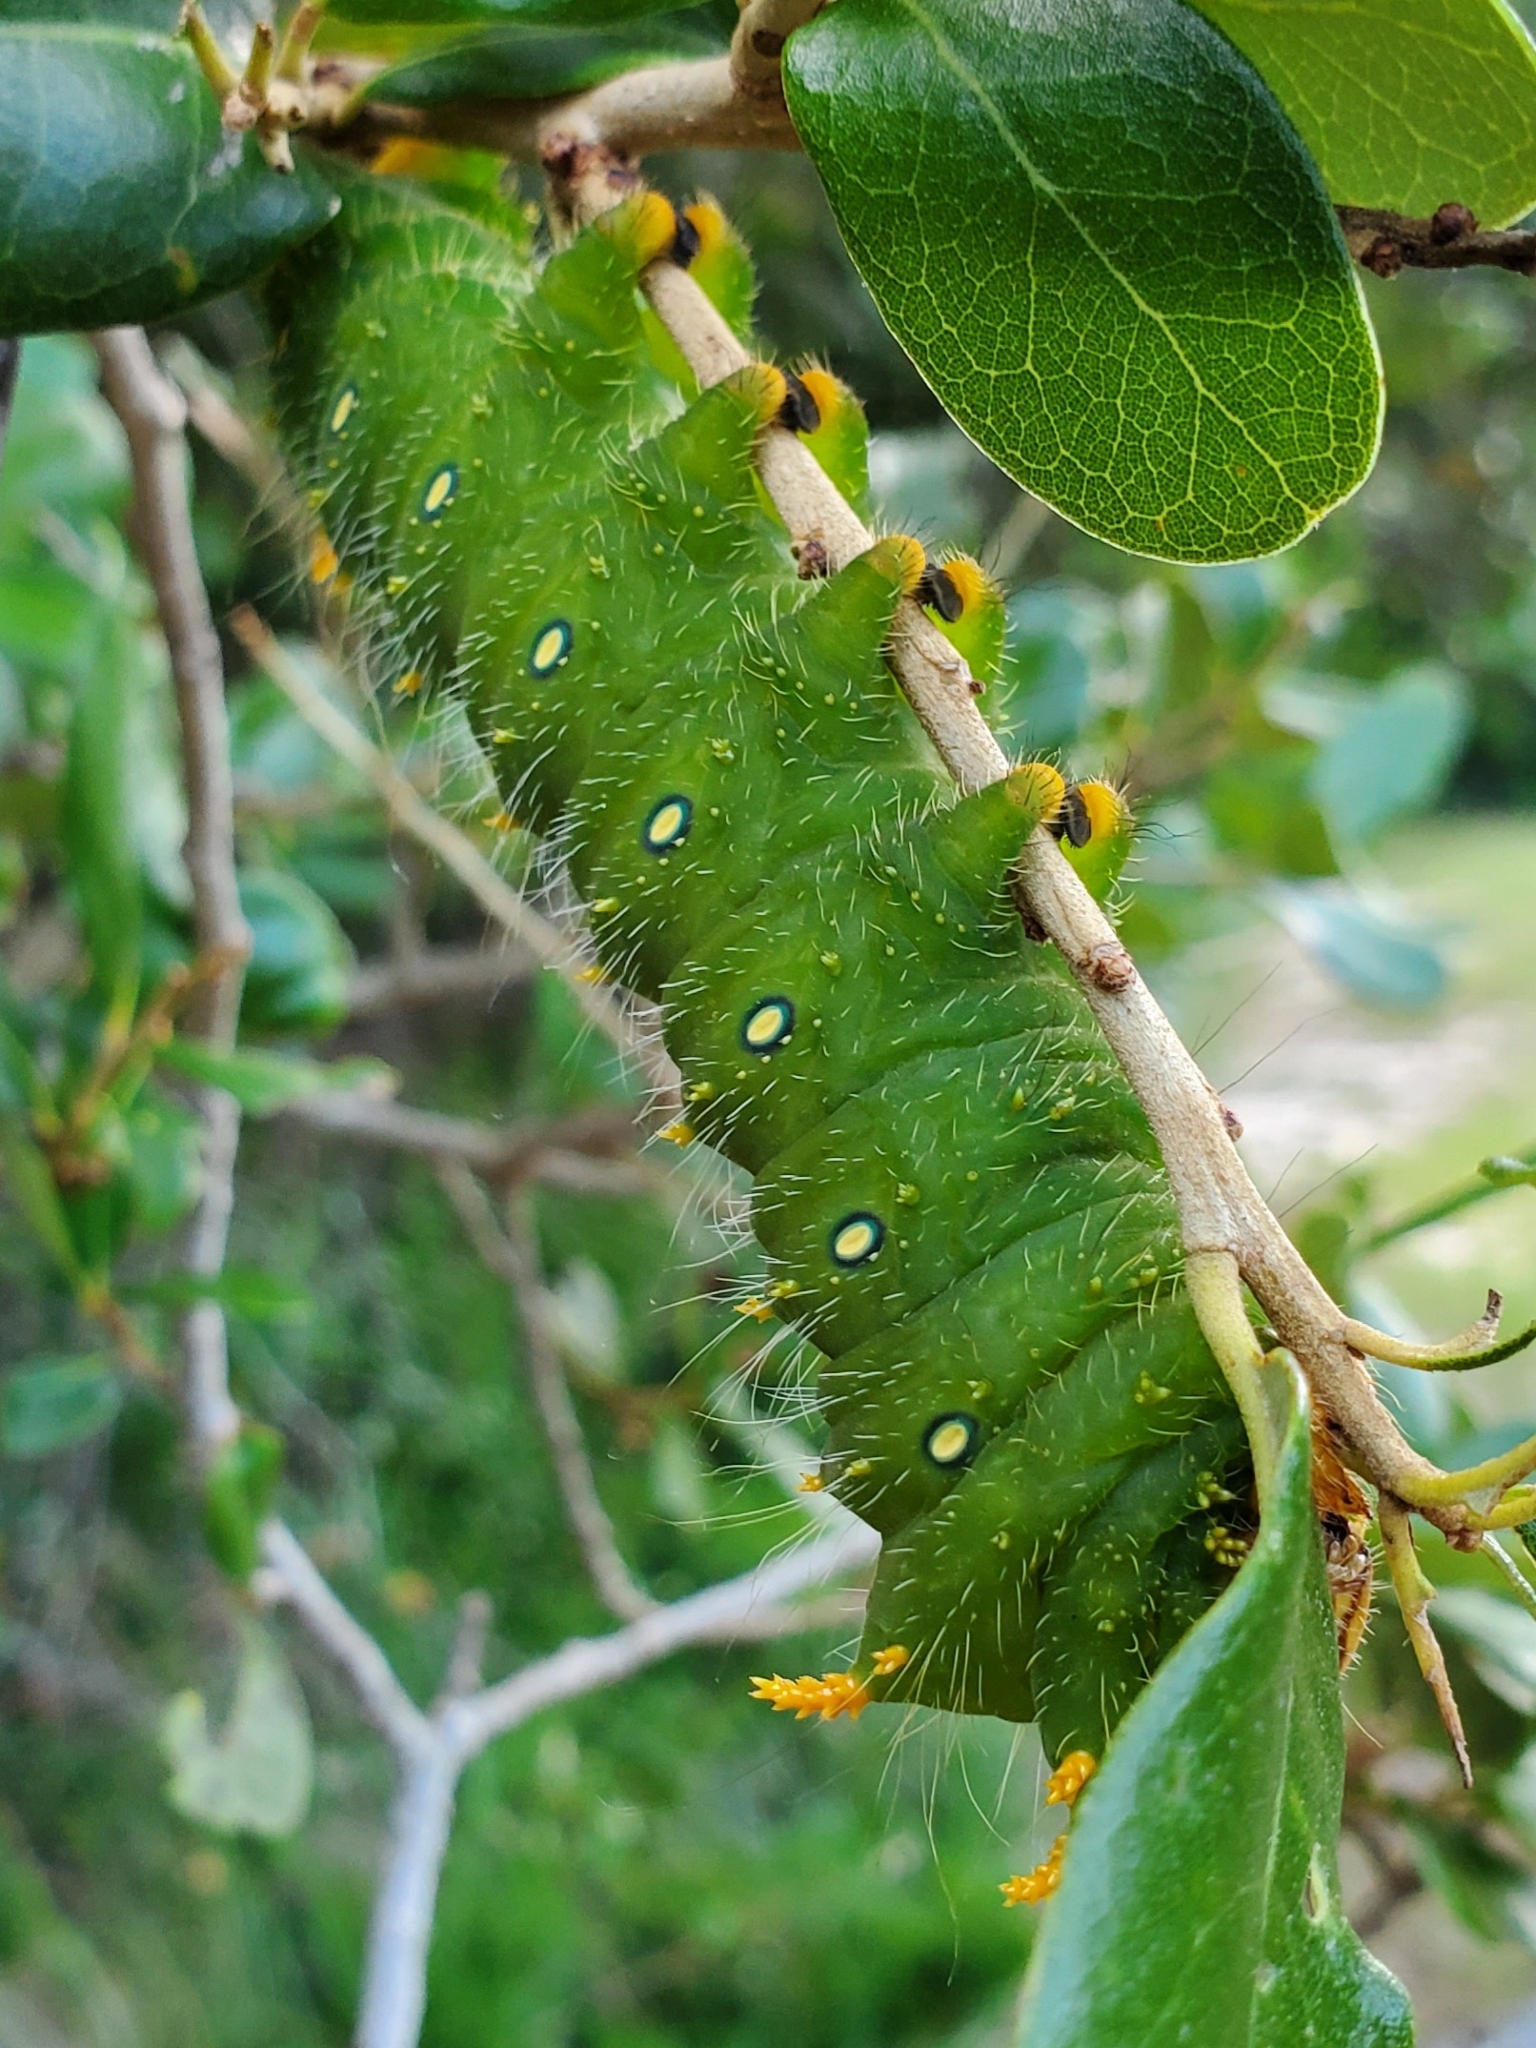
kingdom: Animalia
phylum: Arthropoda
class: Insecta
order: Lepidoptera
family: Saturniidae
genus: Eacles
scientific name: Eacles imperialis
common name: Imperial moth
